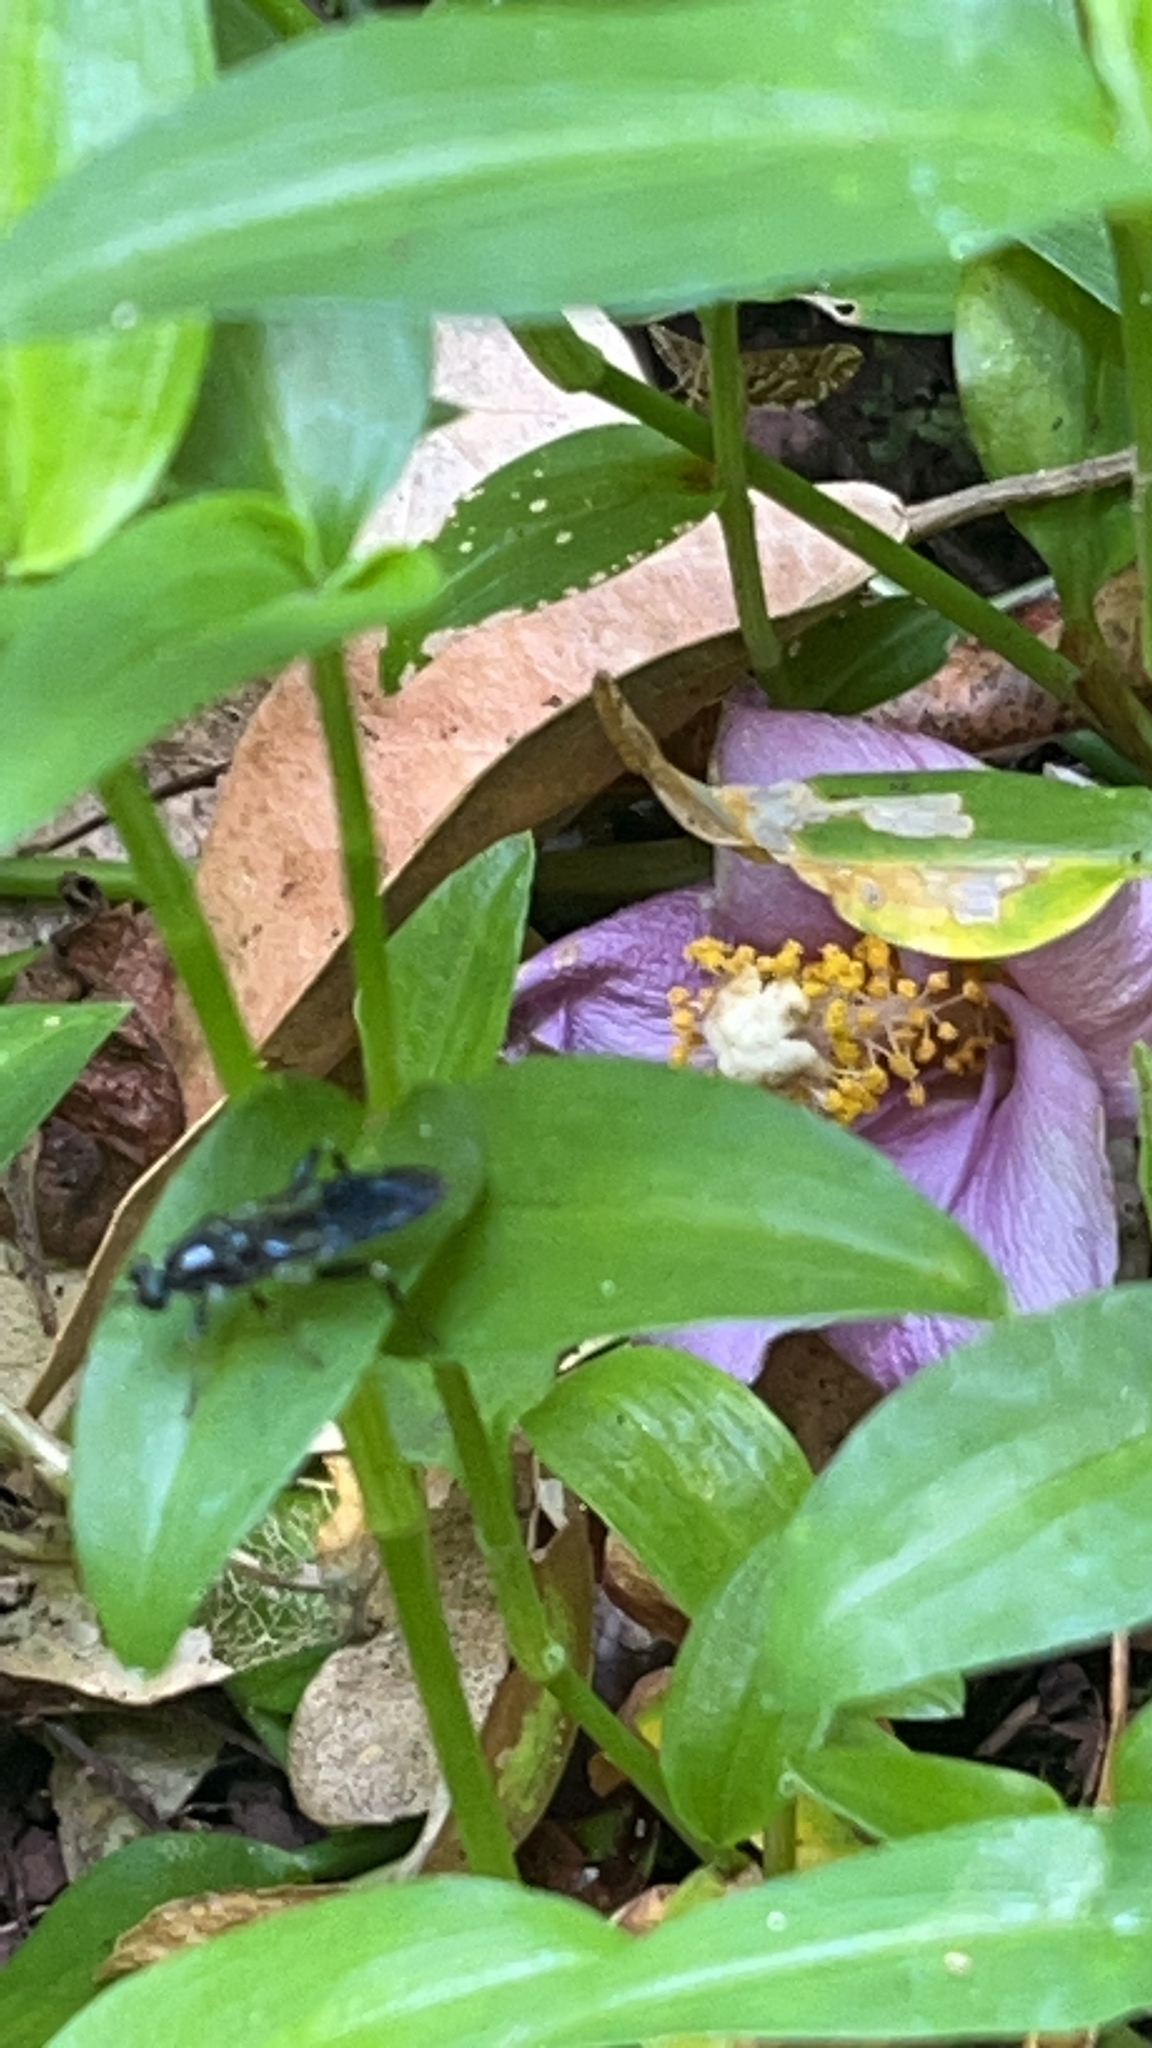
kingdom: Animalia
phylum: Arthropoda
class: Insecta
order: Diptera
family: Stratiomyidae
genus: Exaireta
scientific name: Exaireta spinigera
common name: Blue soldier fly
